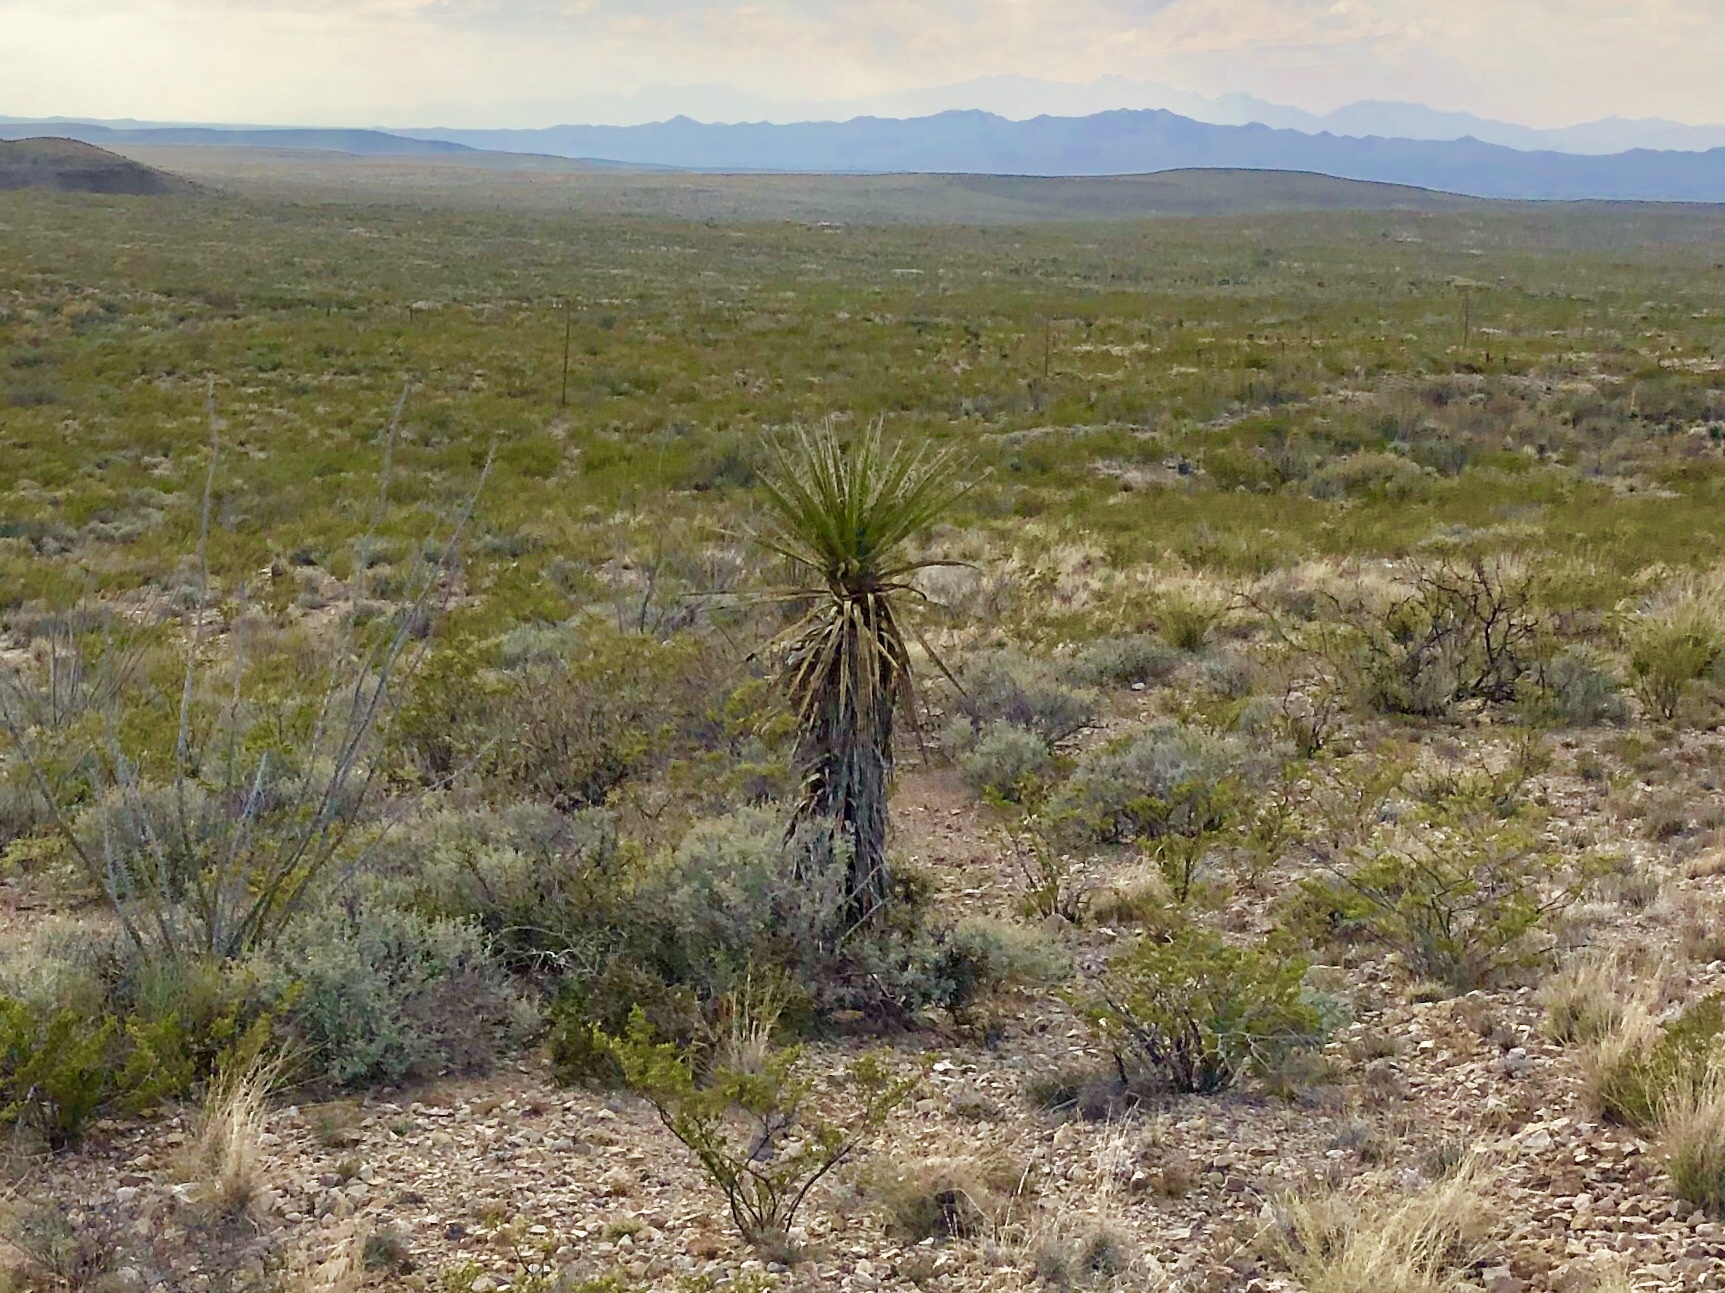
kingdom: Plantae
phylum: Tracheophyta
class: Liliopsida
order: Asparagales
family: Asparagaceae
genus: Yucca
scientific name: Yucca treculiana
